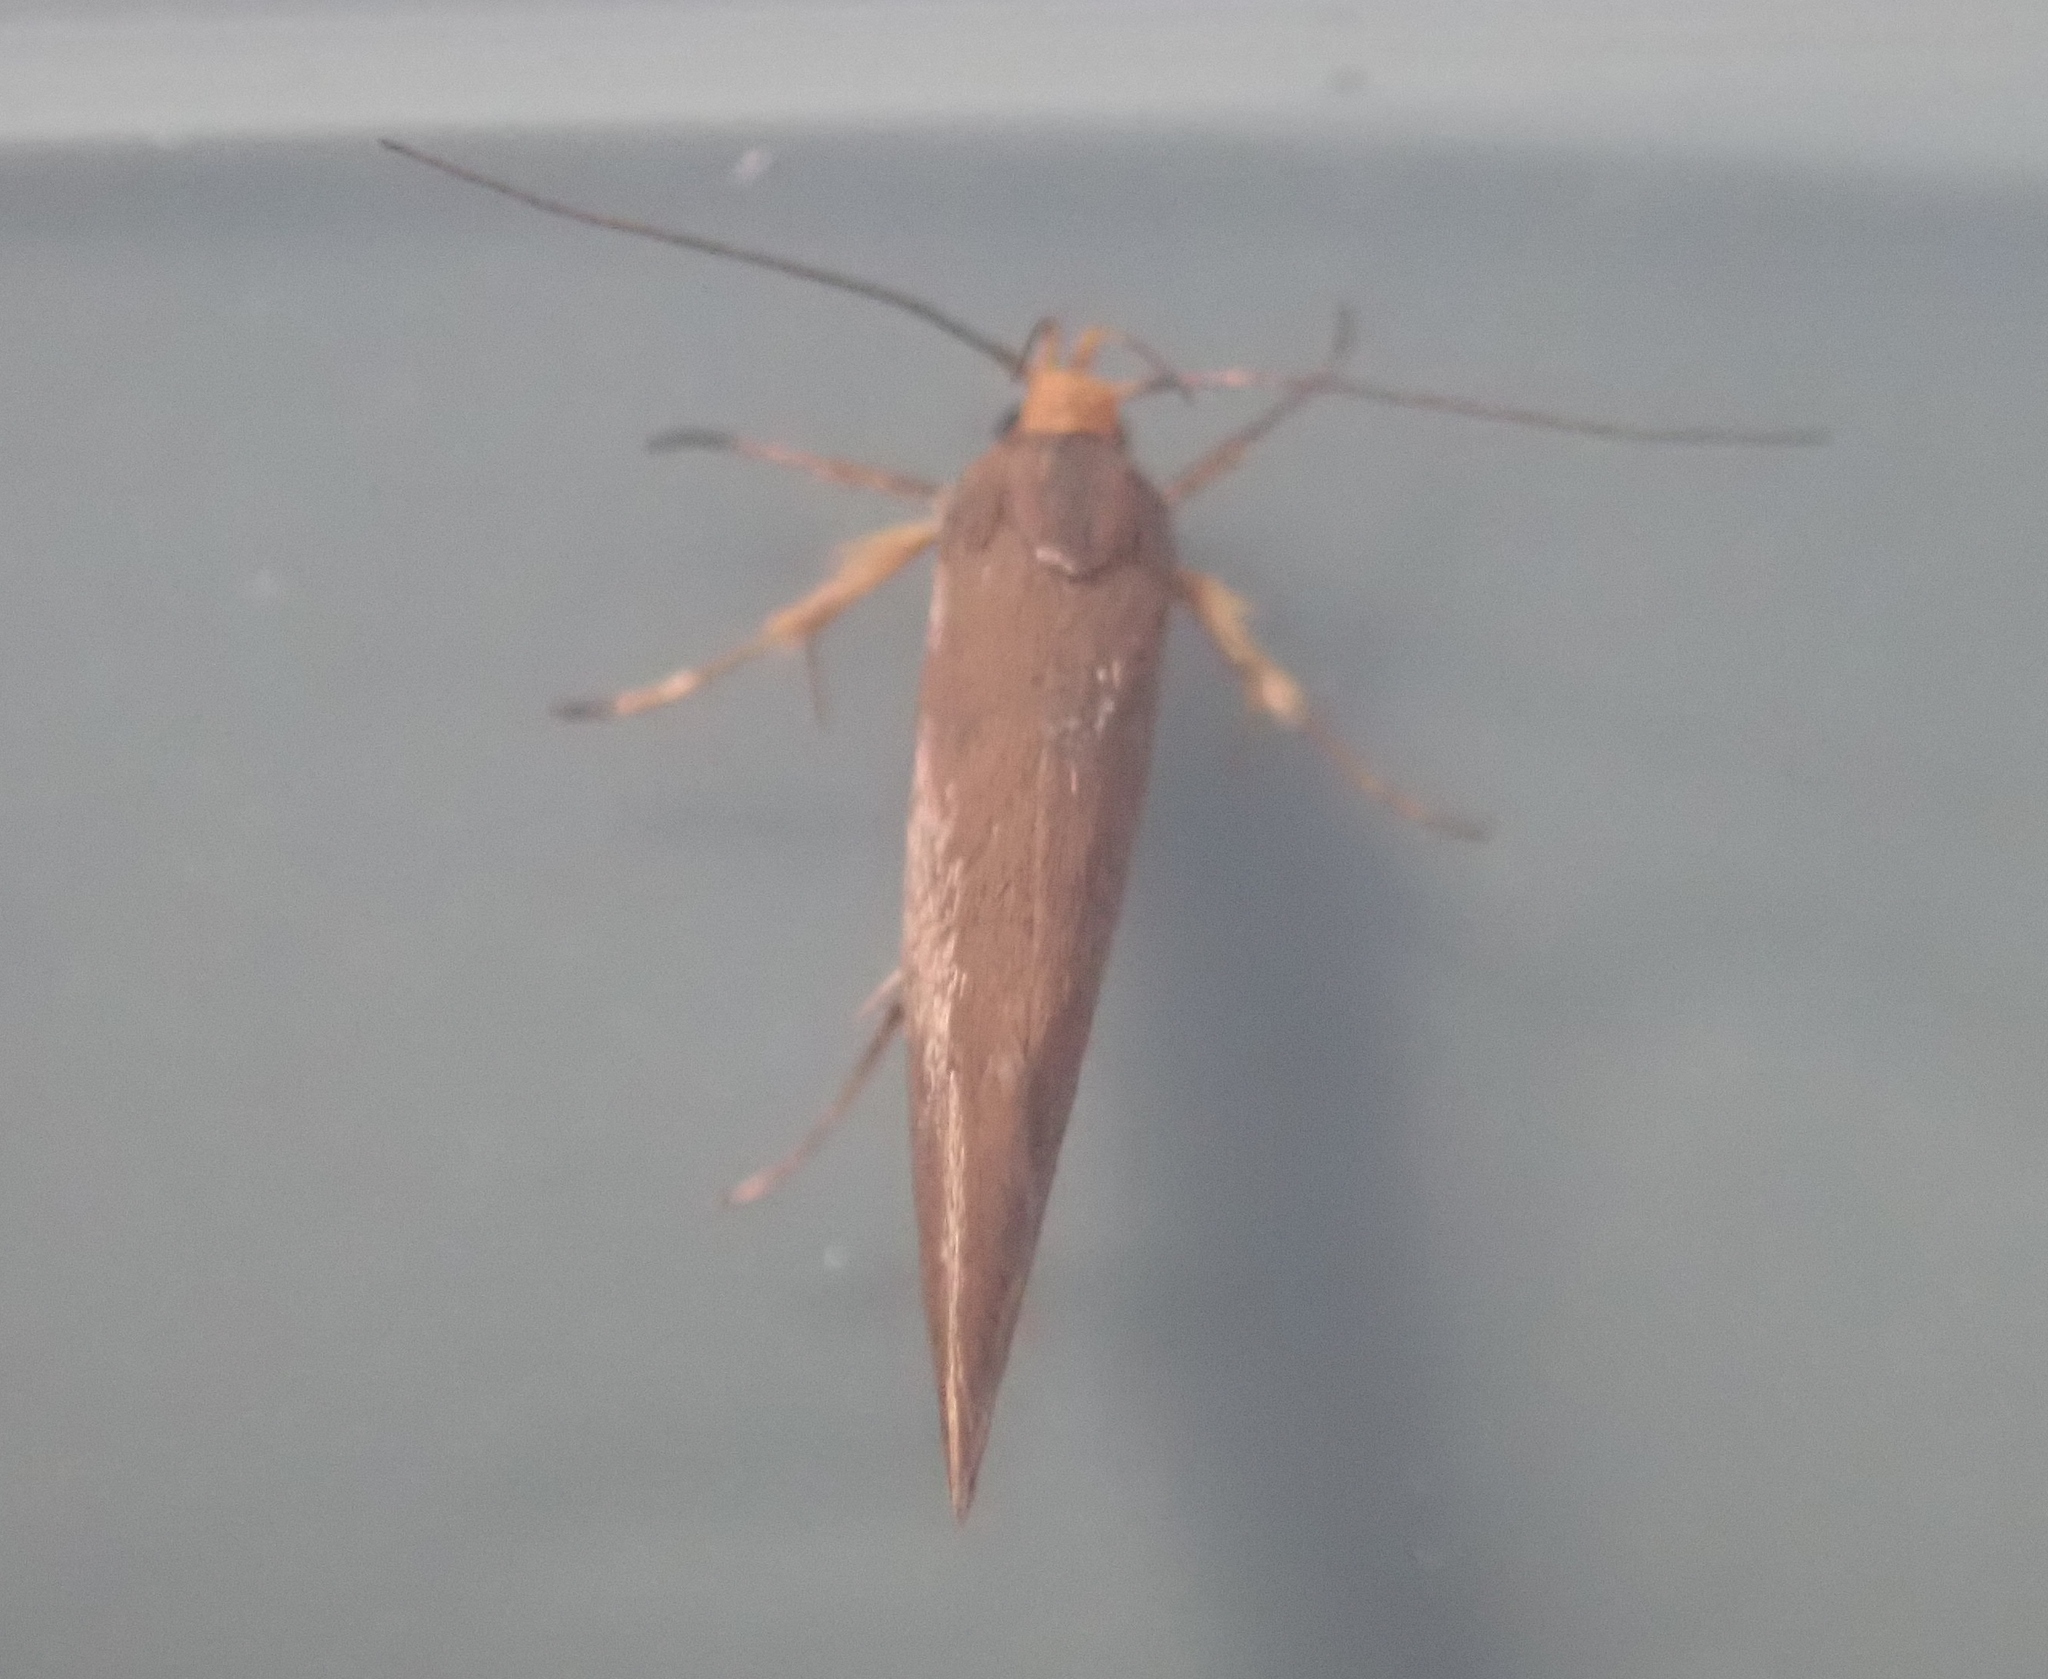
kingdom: Animalia
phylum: Arthropoda
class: Insecta
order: Lepidoptera
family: Oecophoridae
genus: Borkhausenia
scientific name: Borkhausenia Crassa unitella
